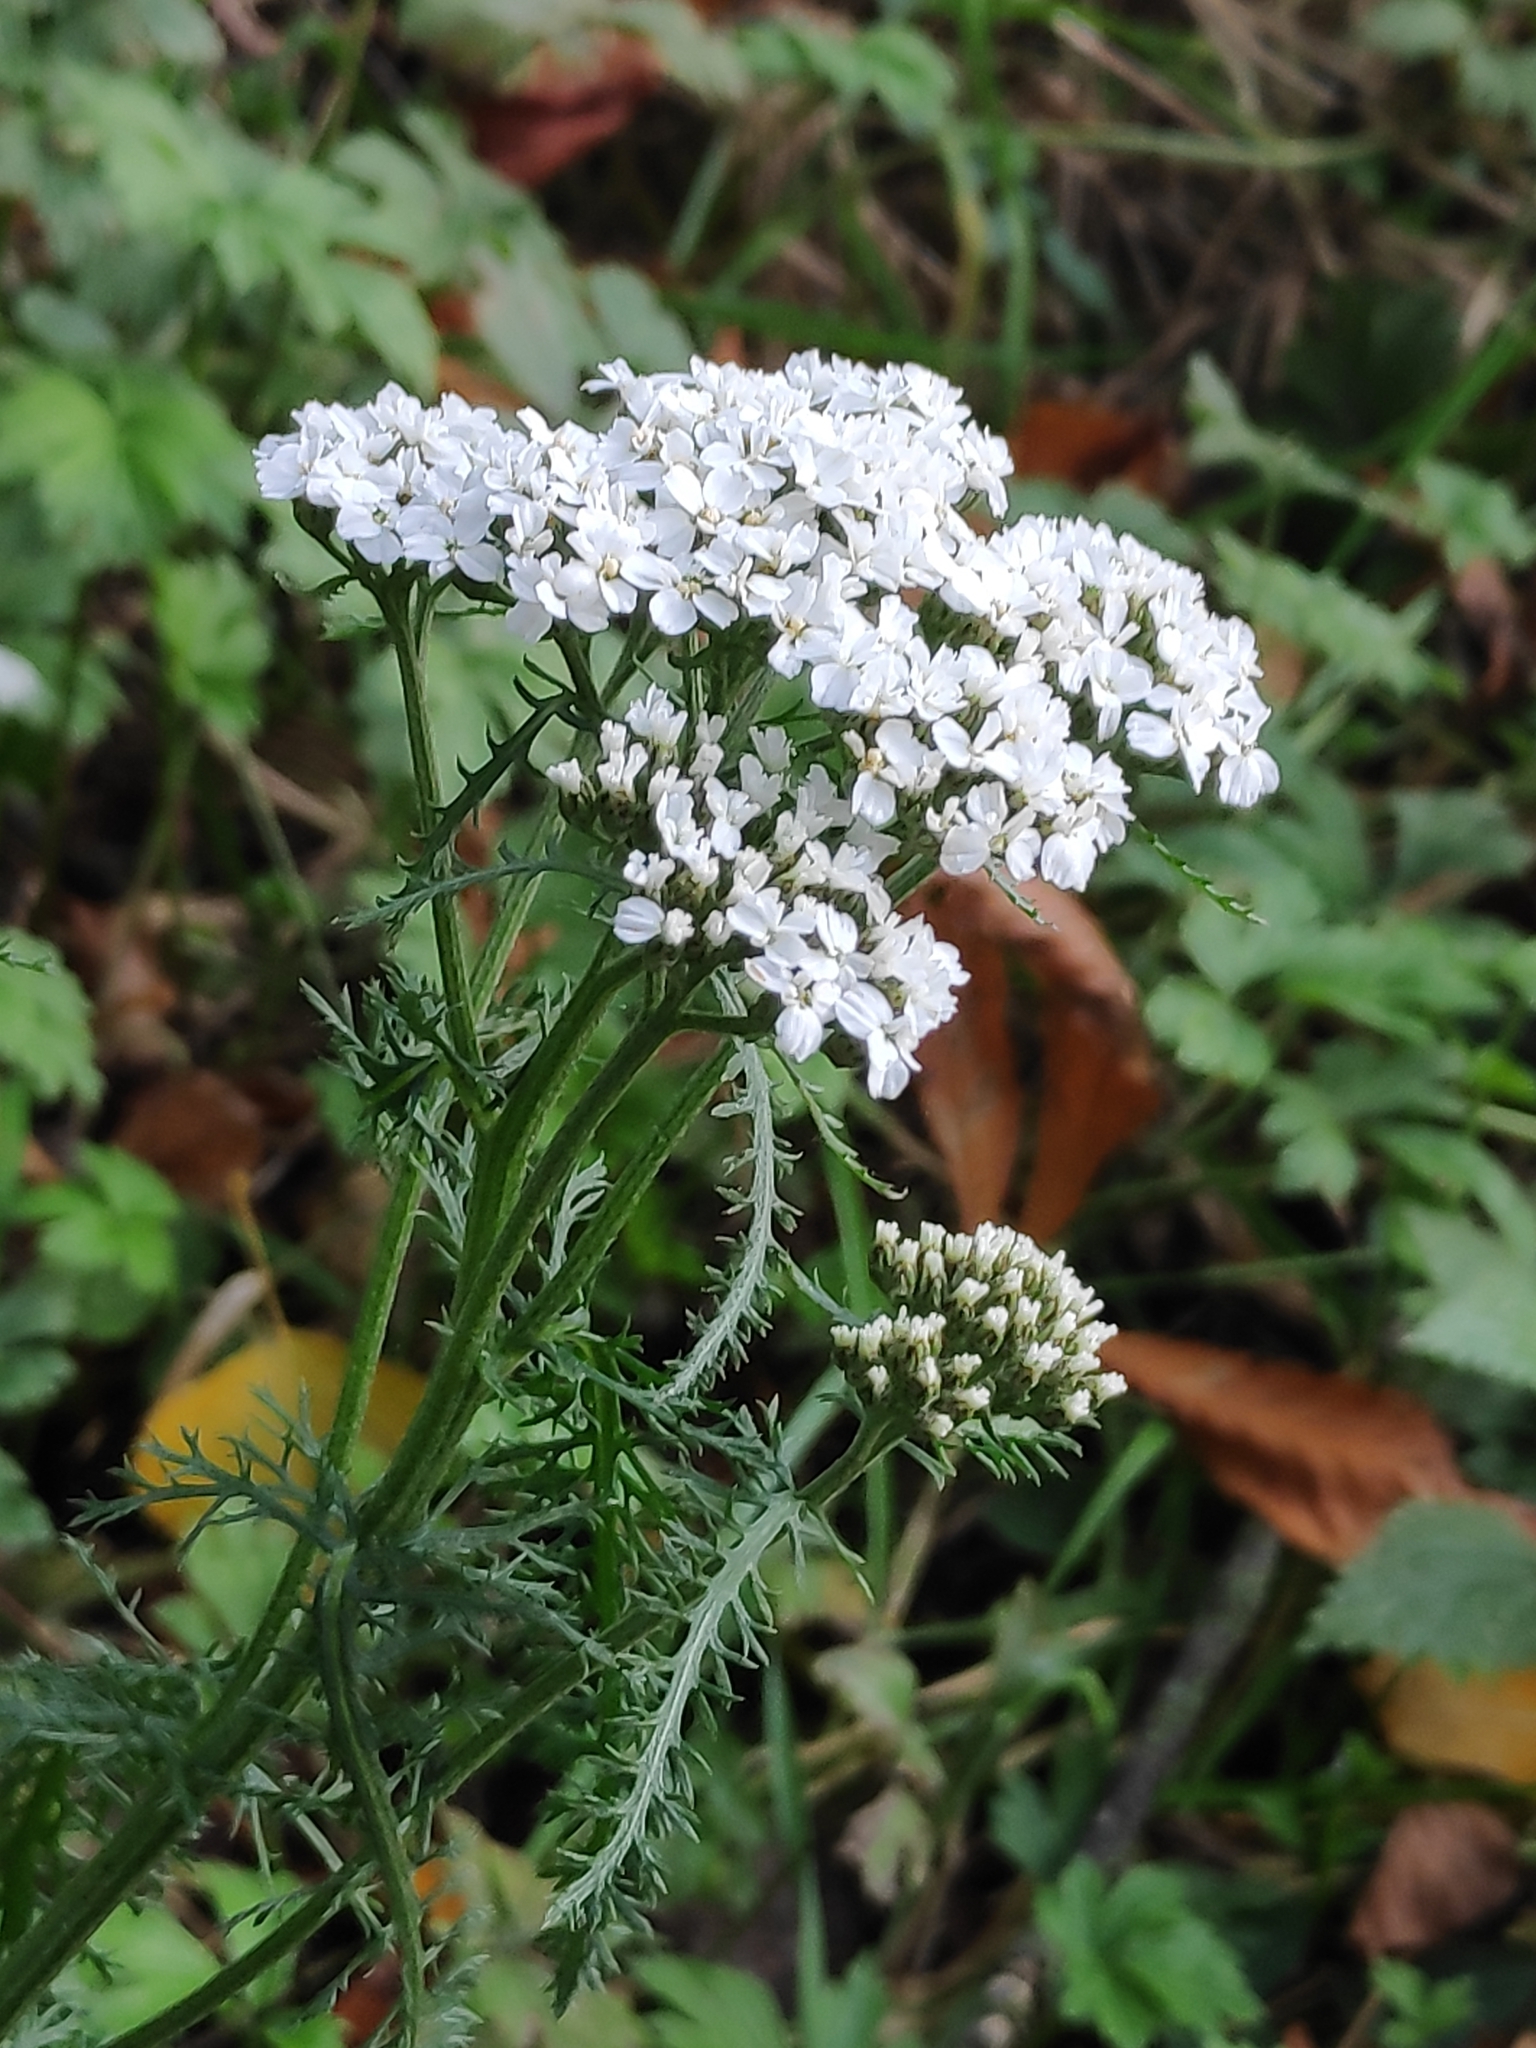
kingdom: Plantae
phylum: Tracheophyta
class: Magnoliopsida
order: Asterales
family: Asteraceae
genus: Achillea
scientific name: Achillea millefolium
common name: Yarrow
